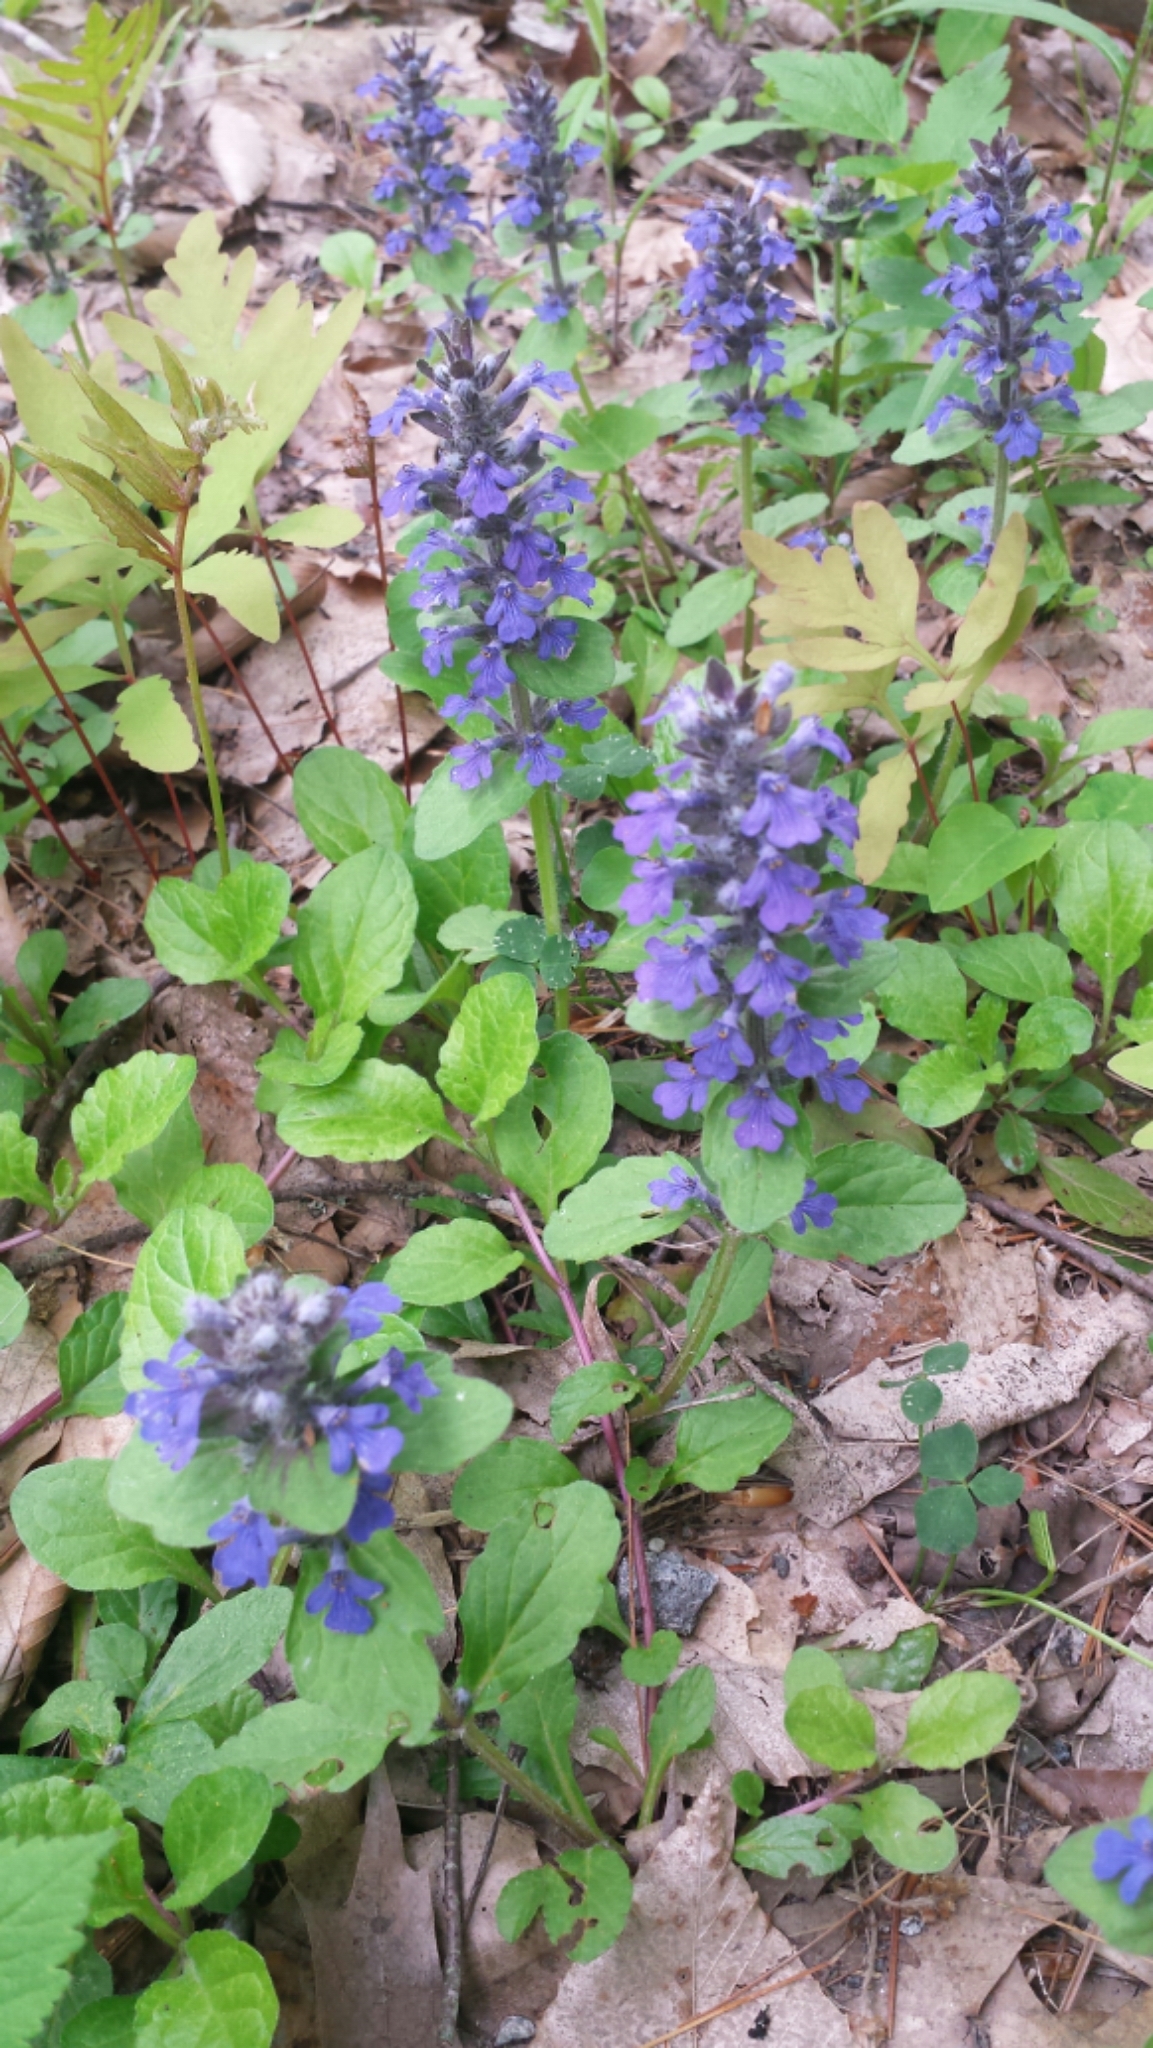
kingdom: Plantae
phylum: Tracheophyta
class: Magnoliopsida
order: Lamiales
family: Lamiaceae
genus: Ajuga
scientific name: Ajuga reptans
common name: Bugle
